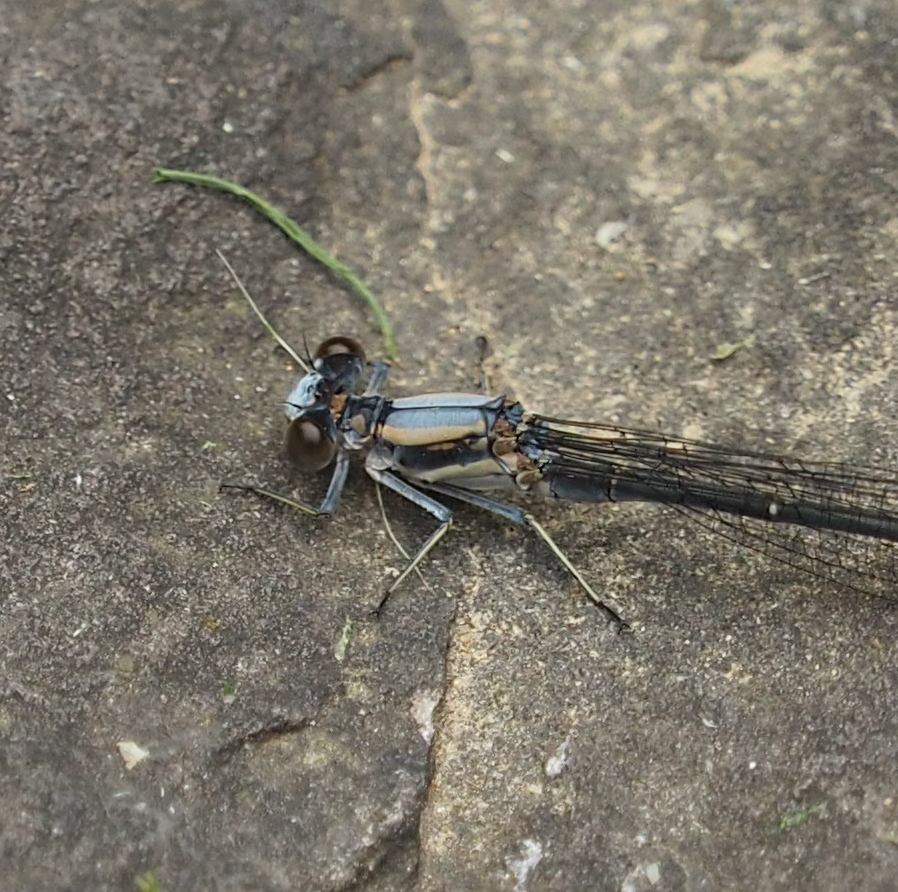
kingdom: Animalia
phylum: Arthropoda
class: Insecta
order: Odonata
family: Coenagrionidae
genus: Argia
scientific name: Argia moesta
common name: Powdered dancer
